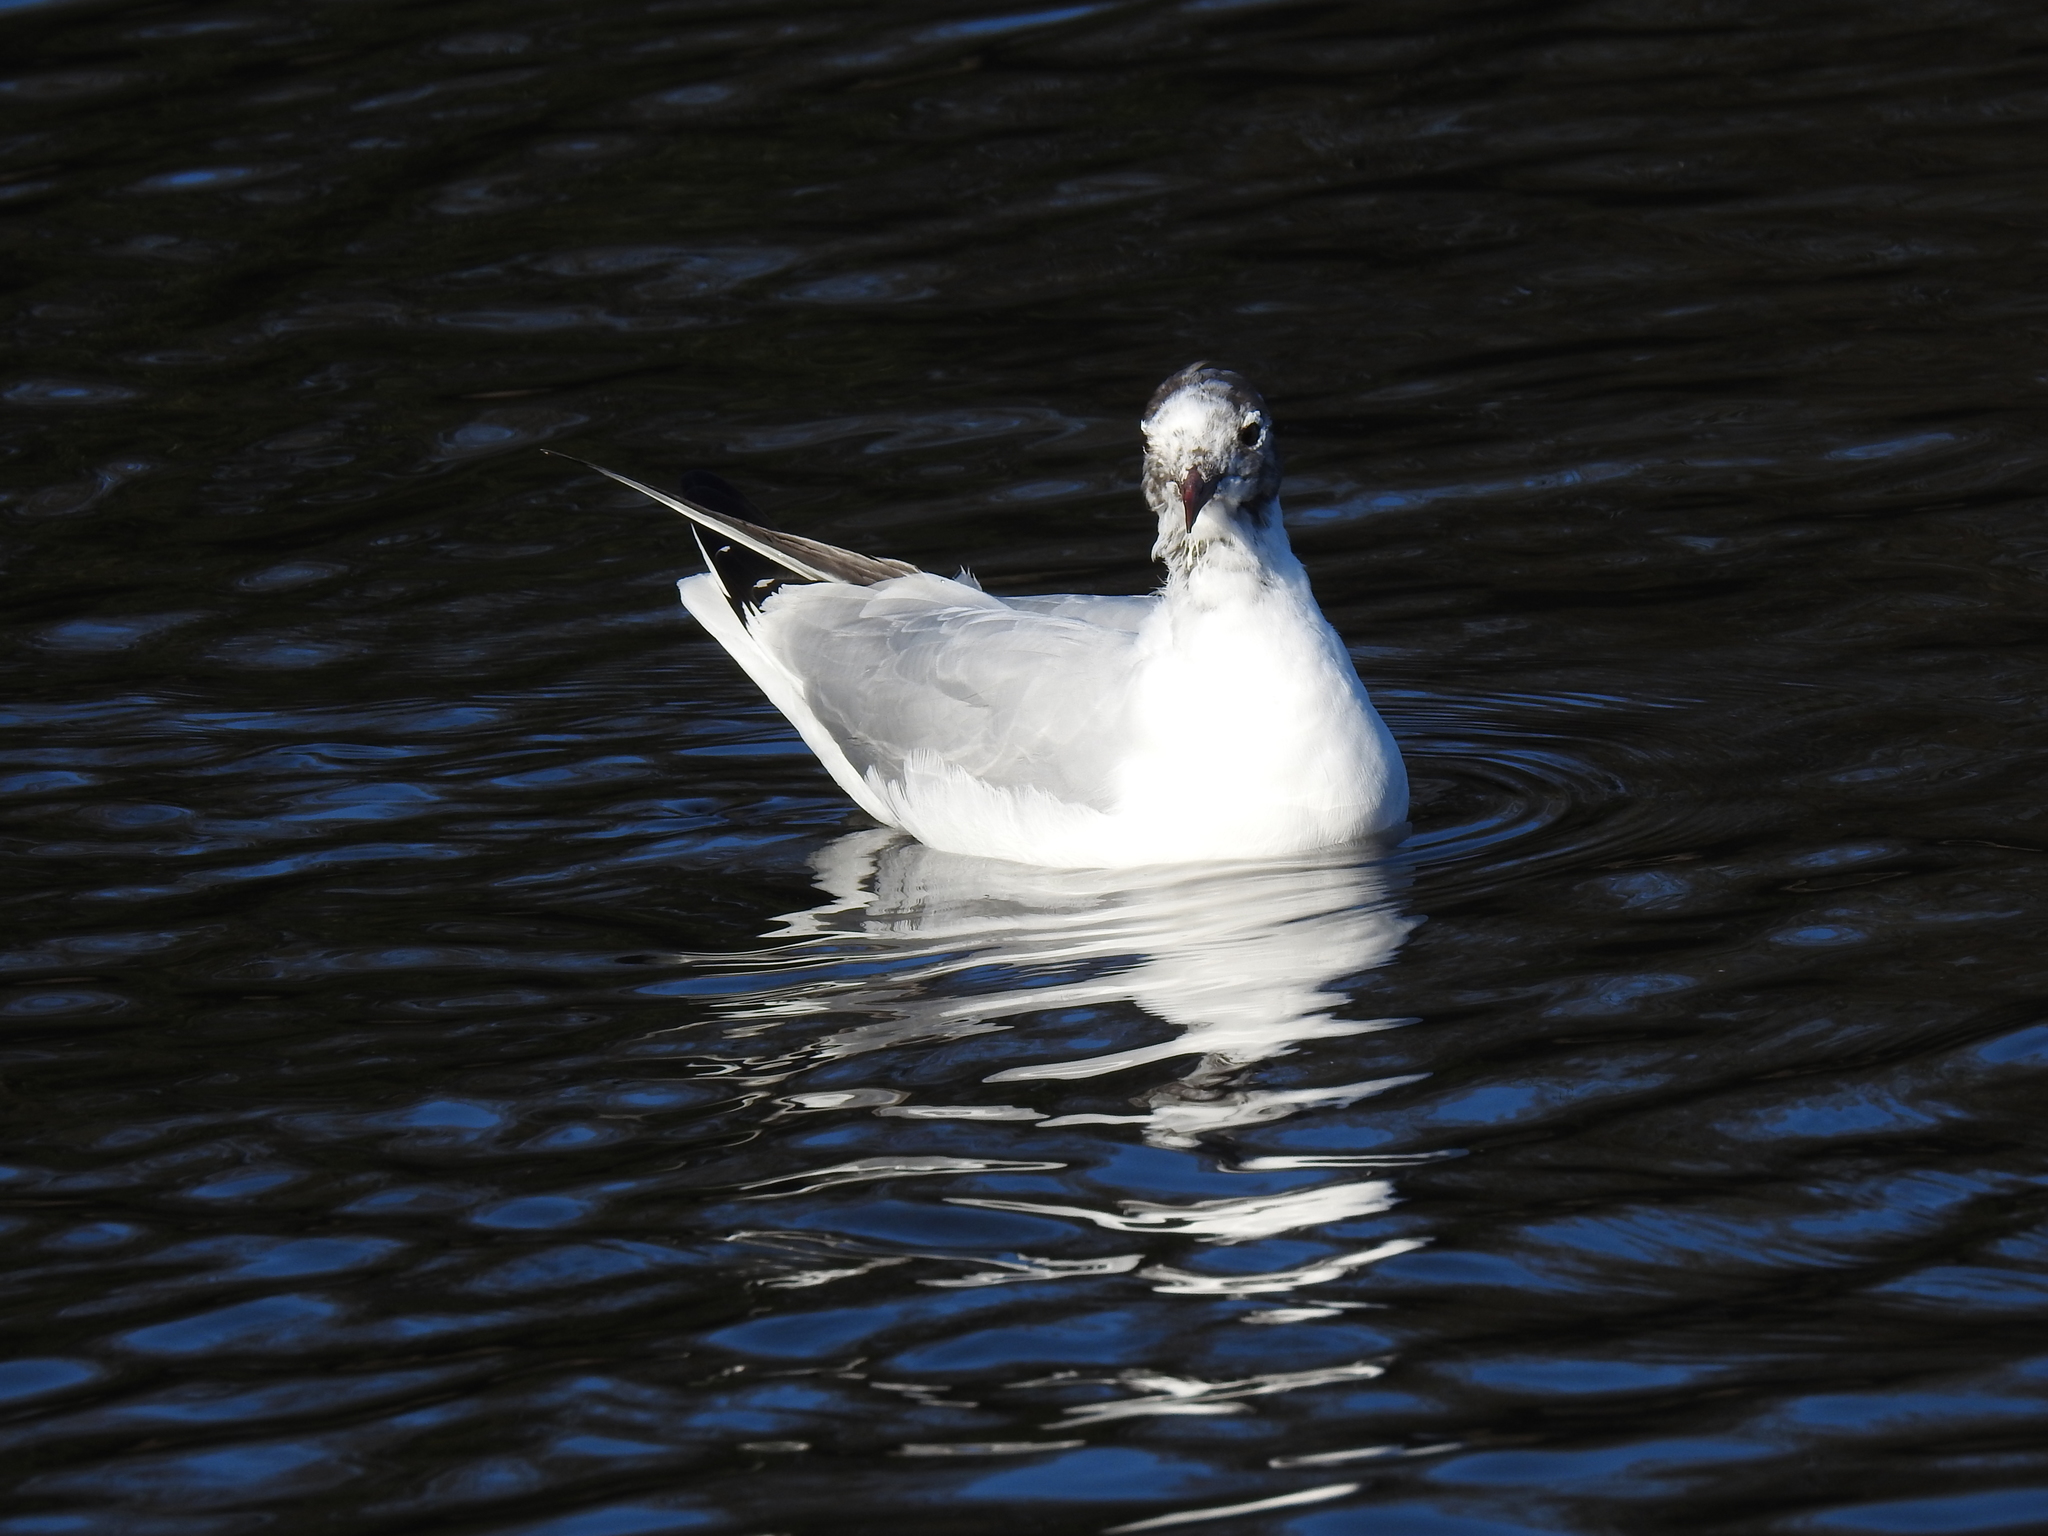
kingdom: Animalia
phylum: Chordata
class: Aves
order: Charadriiformes
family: Laridae
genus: Chroicocephalus
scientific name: Chroicocephalus ridibundus
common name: Black-headed gull
